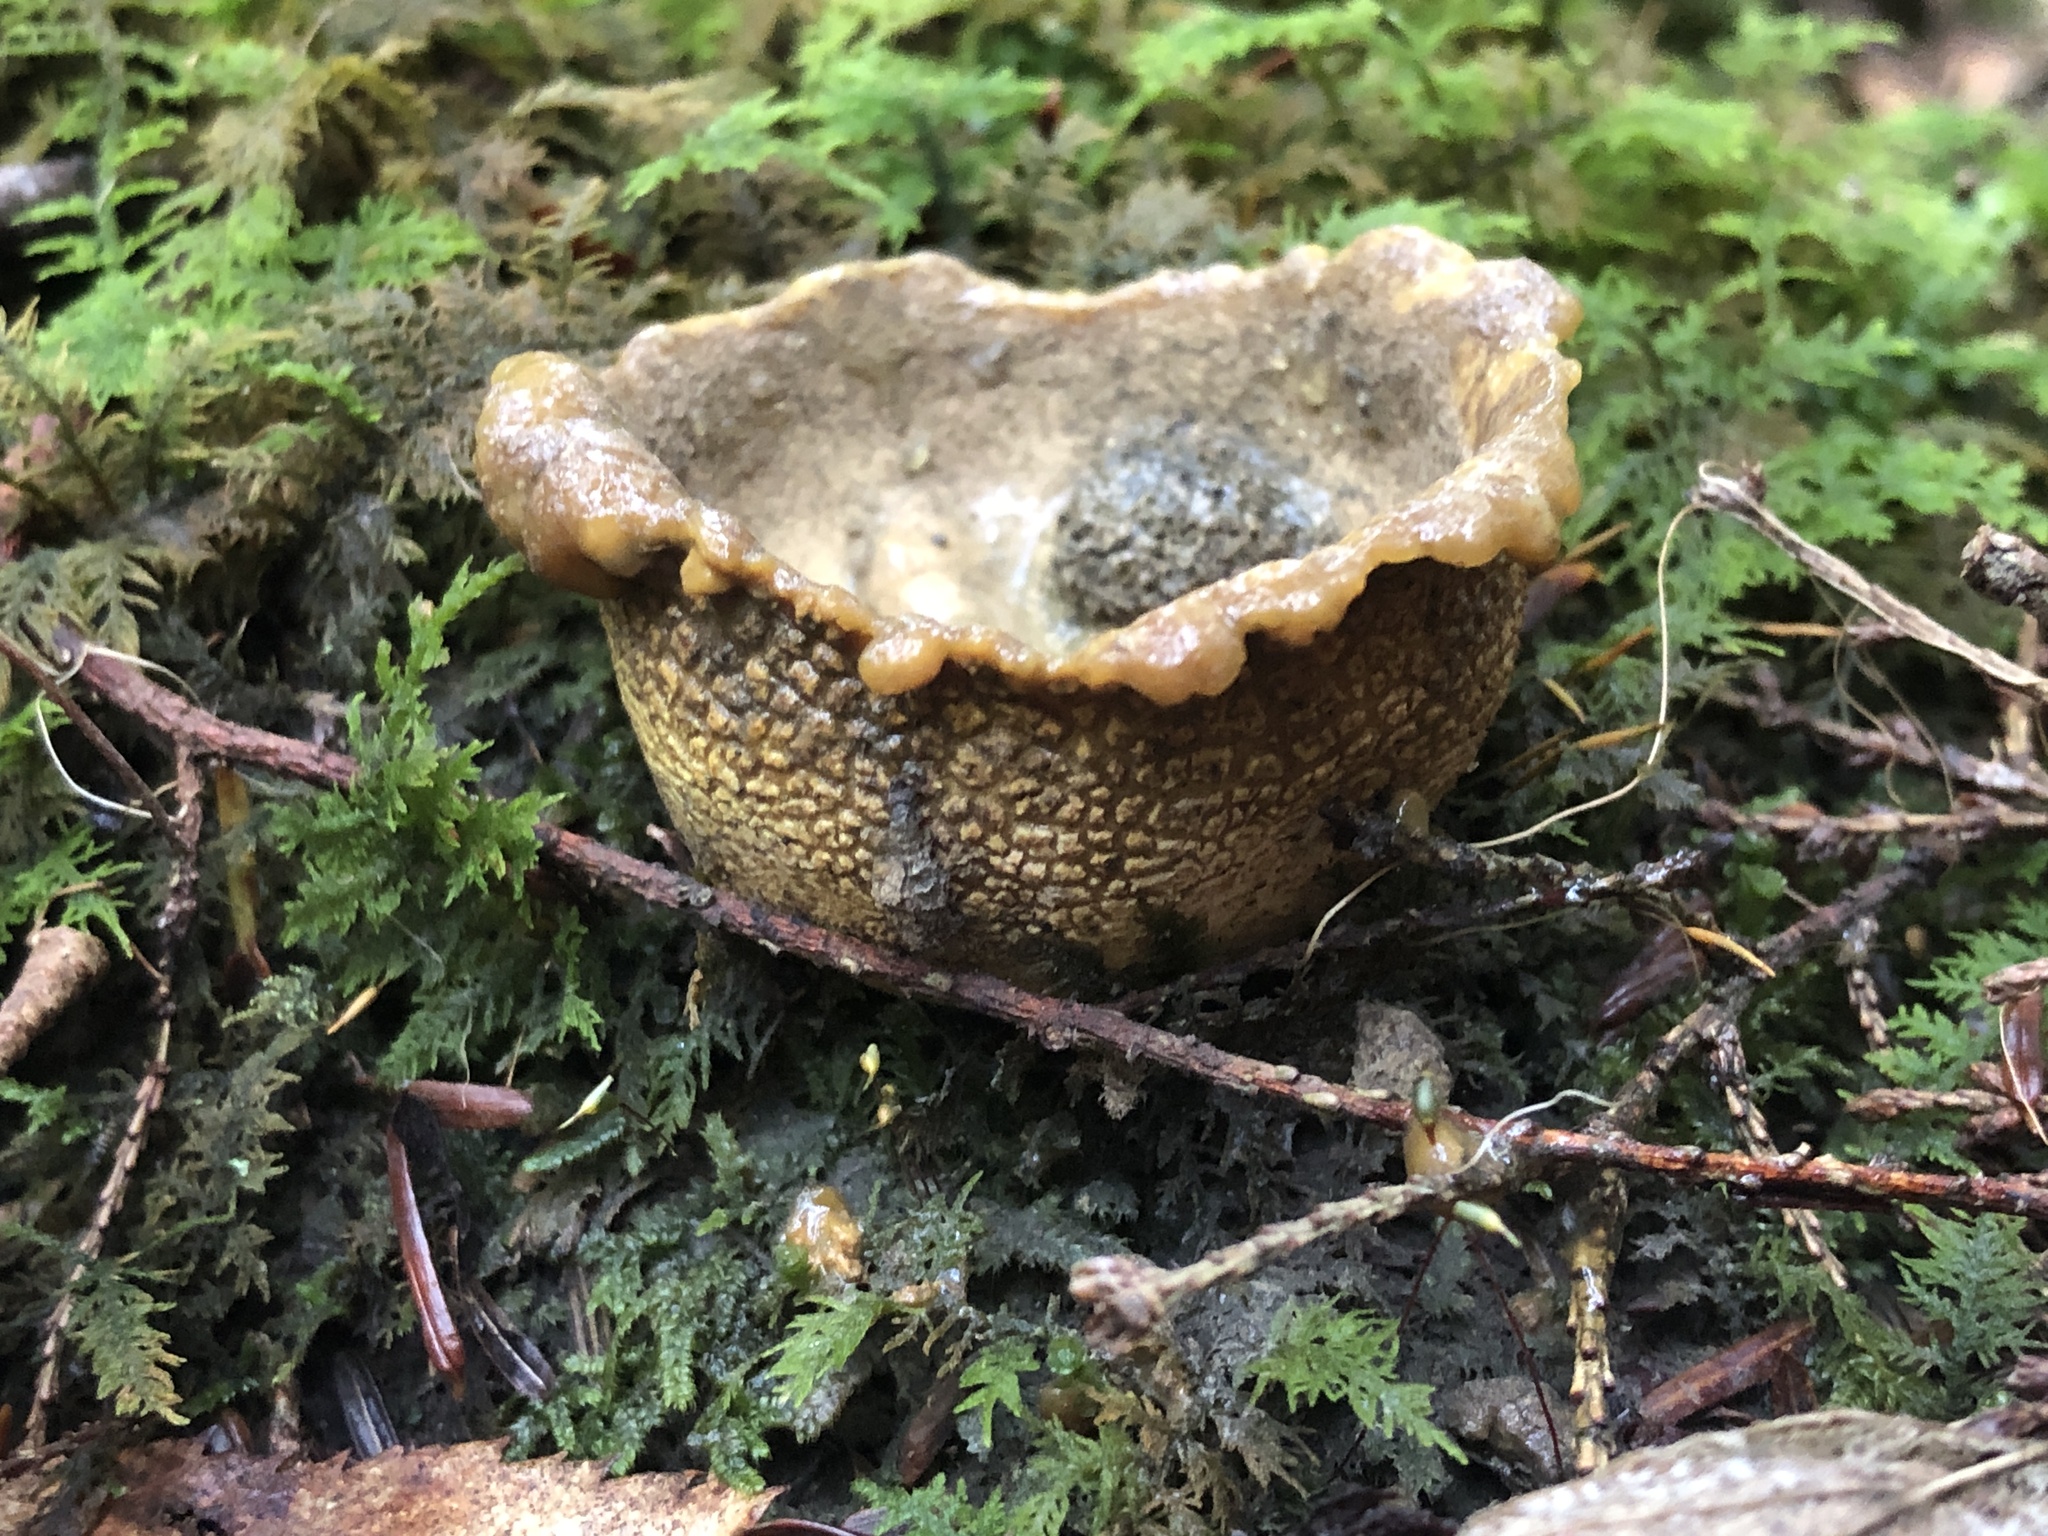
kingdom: Fungi
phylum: Basidiomycota
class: Agaricomycetes
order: Boletales
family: Sclerodermataceae
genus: Scleroderma
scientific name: Scleroderma citrinum
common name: Common earthball
